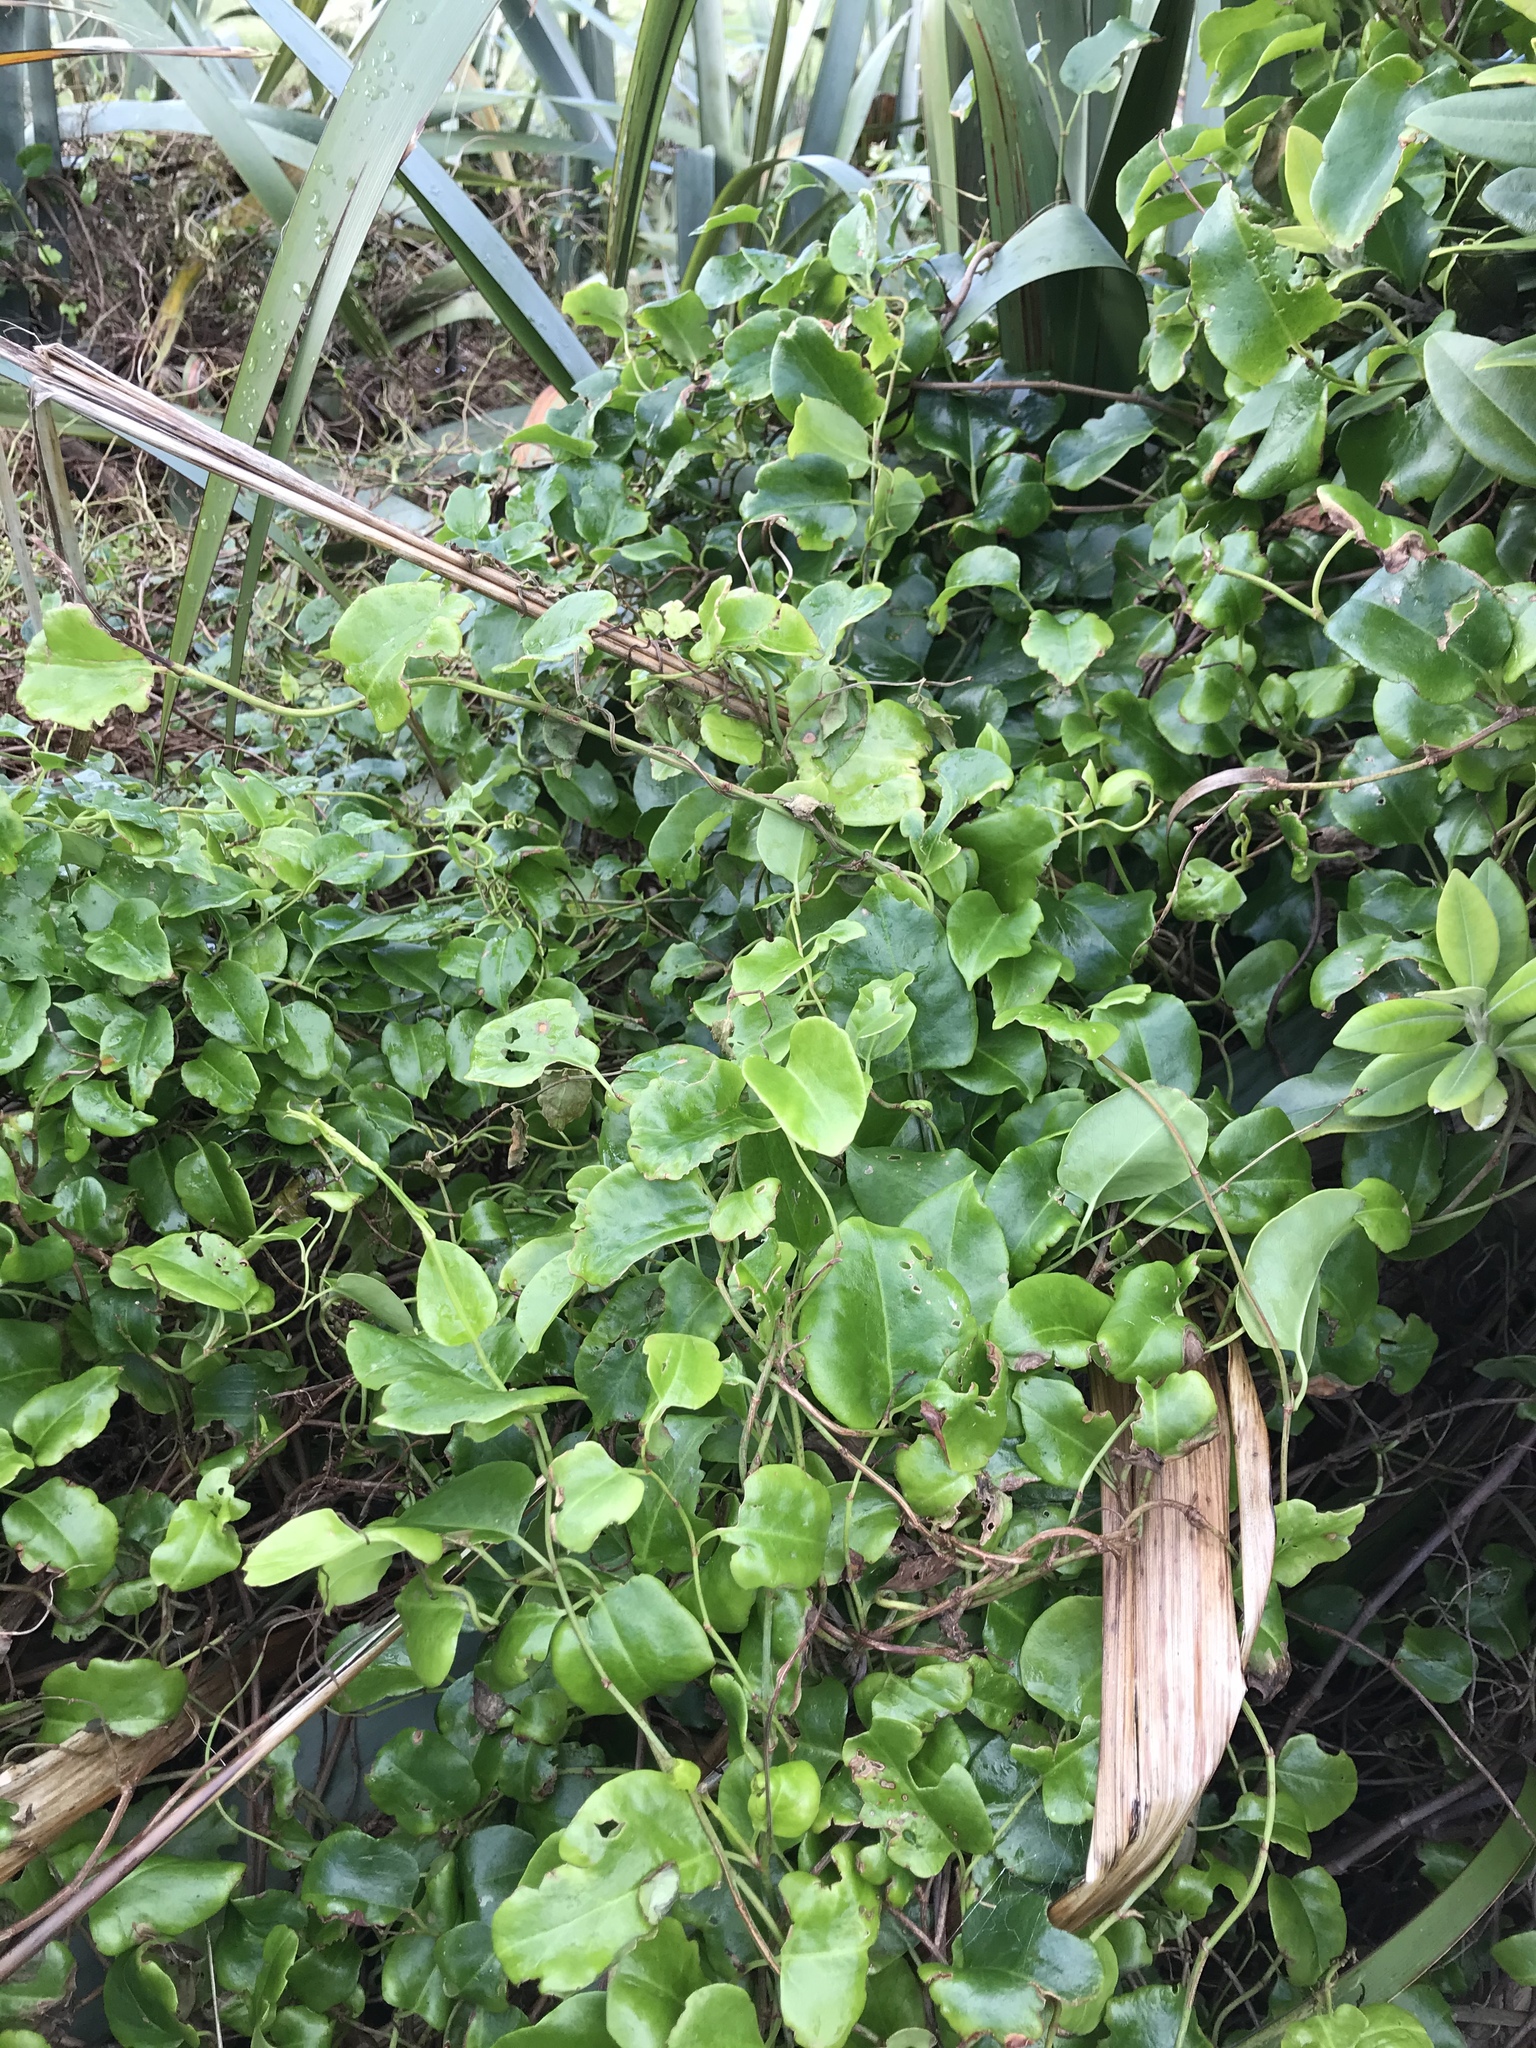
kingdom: Plantae
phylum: Tracheophyta
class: Magnoliopsida
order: Caryophyllales
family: Polygonaceae
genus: Muehlenbeckia
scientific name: Muehlenbeckia australis
